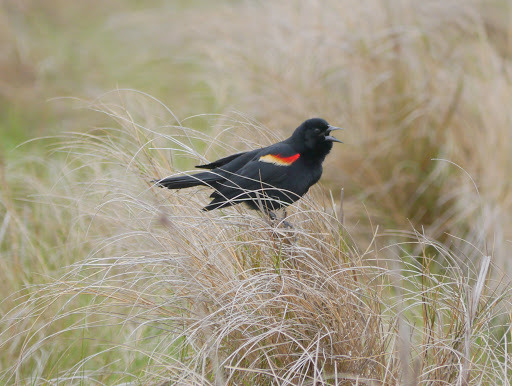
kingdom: Animalia
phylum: Chordata
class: Aves
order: Passeriformes
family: Icteridae
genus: Agelaius
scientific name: Agelaius phoeniceus
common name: Red-winged blackbird
